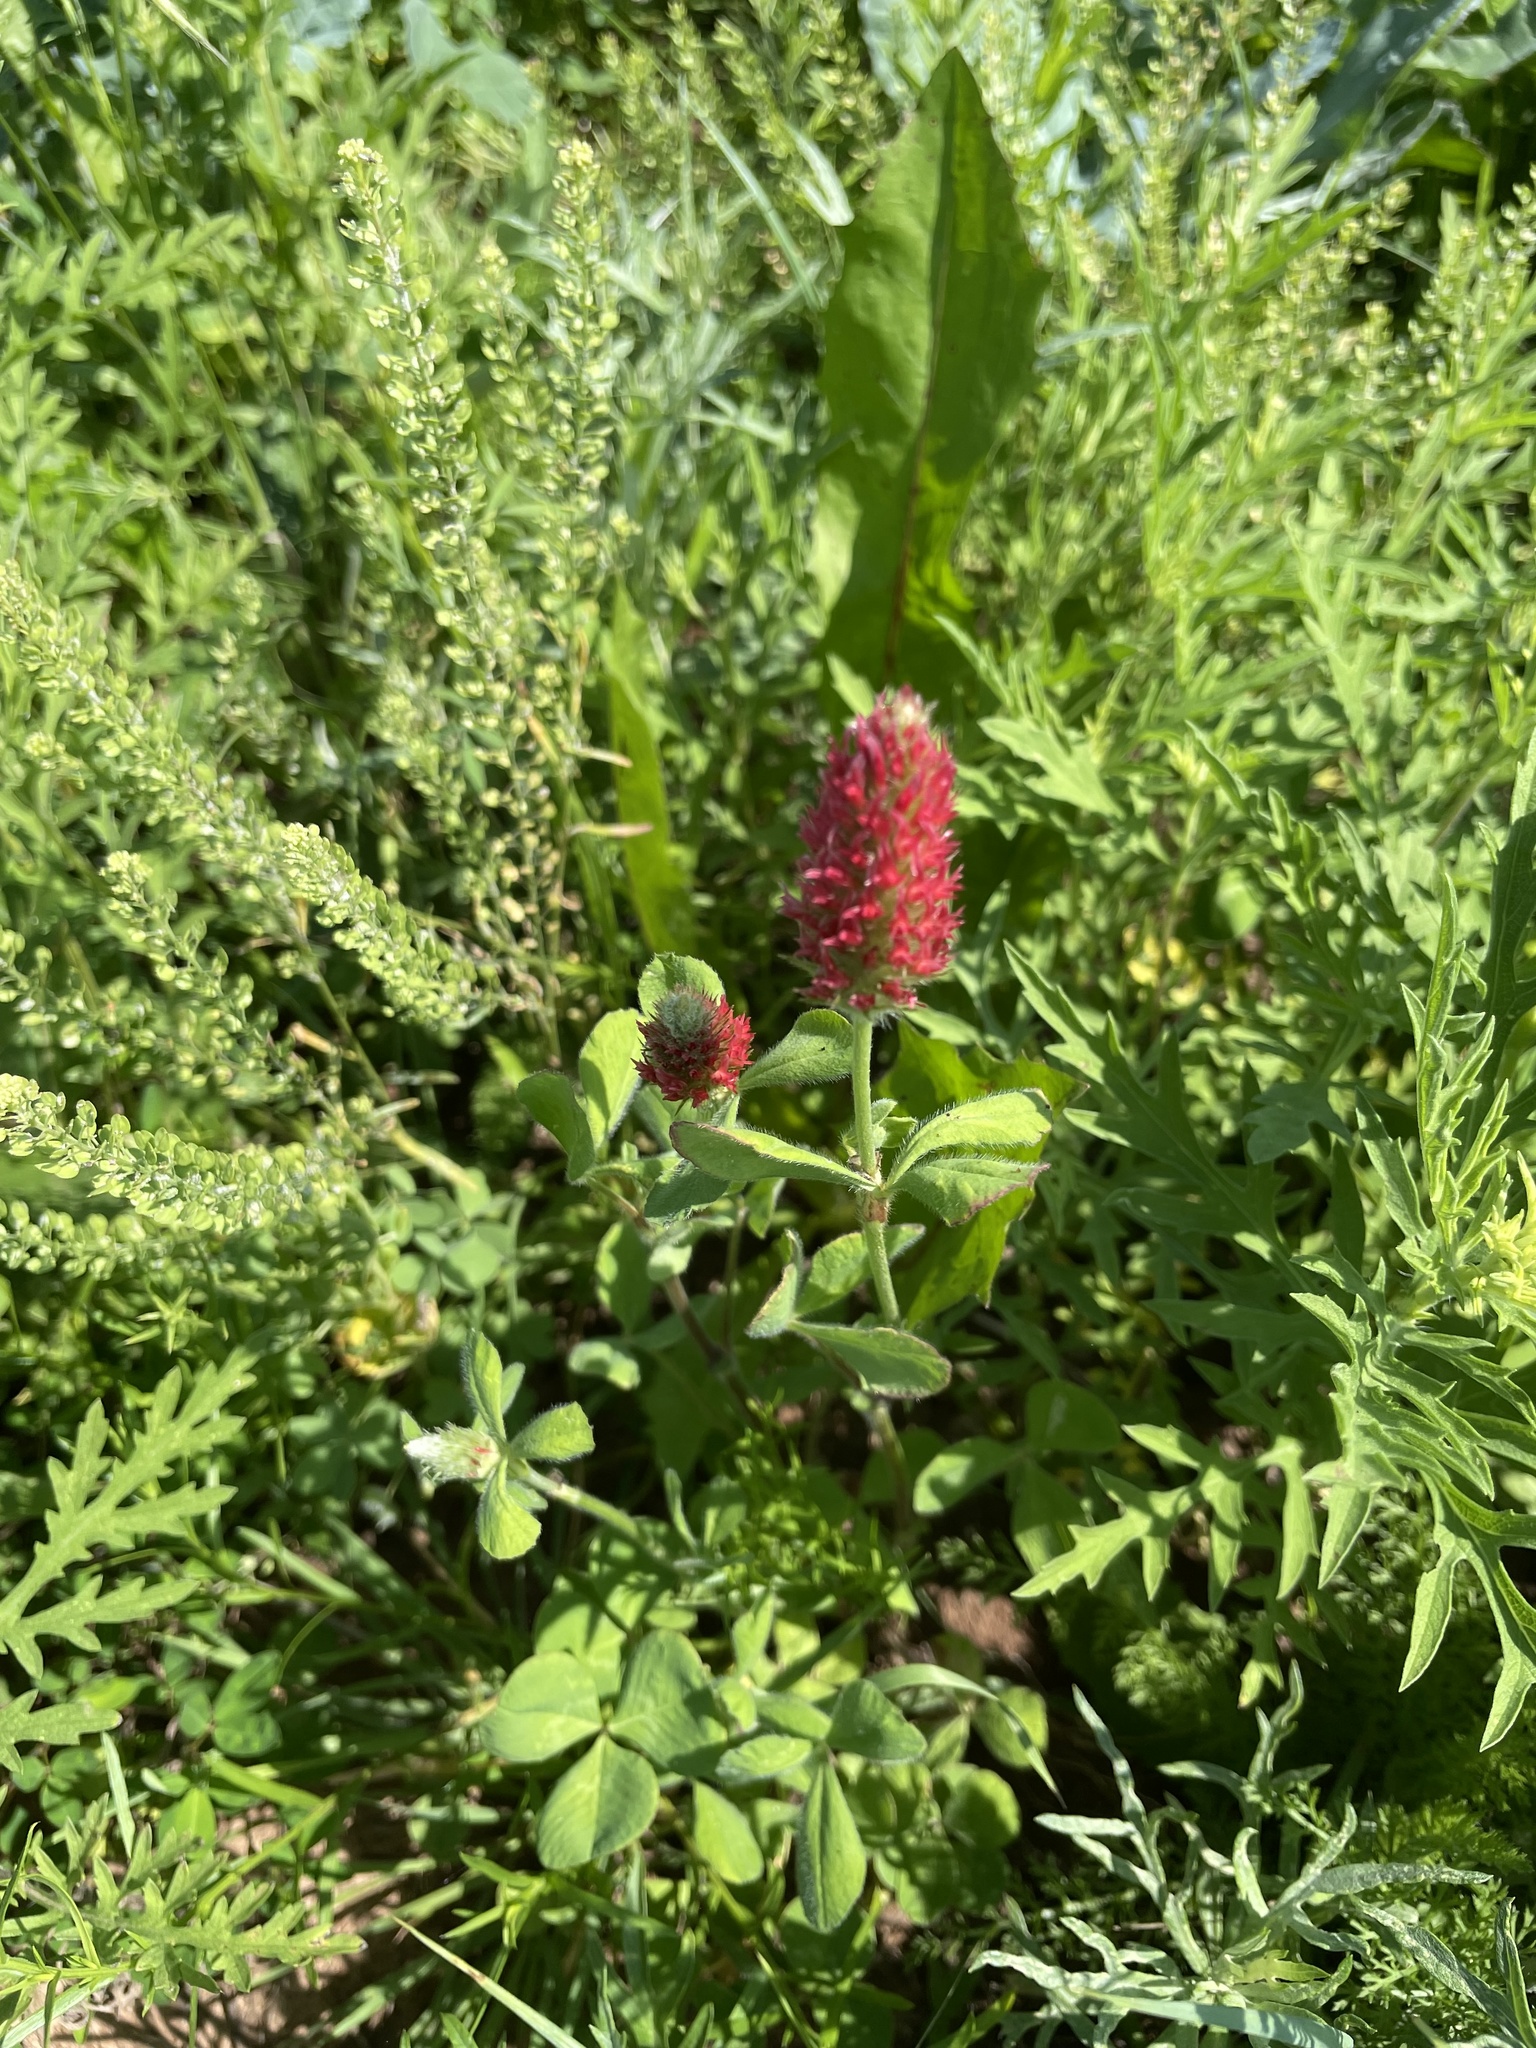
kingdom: Plantae
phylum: Tracheophyta
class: Magnoliopsida
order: Fabales
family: Fabaceae
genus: Trifolium
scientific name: Trifolium incarnatum
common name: Crimson clover
